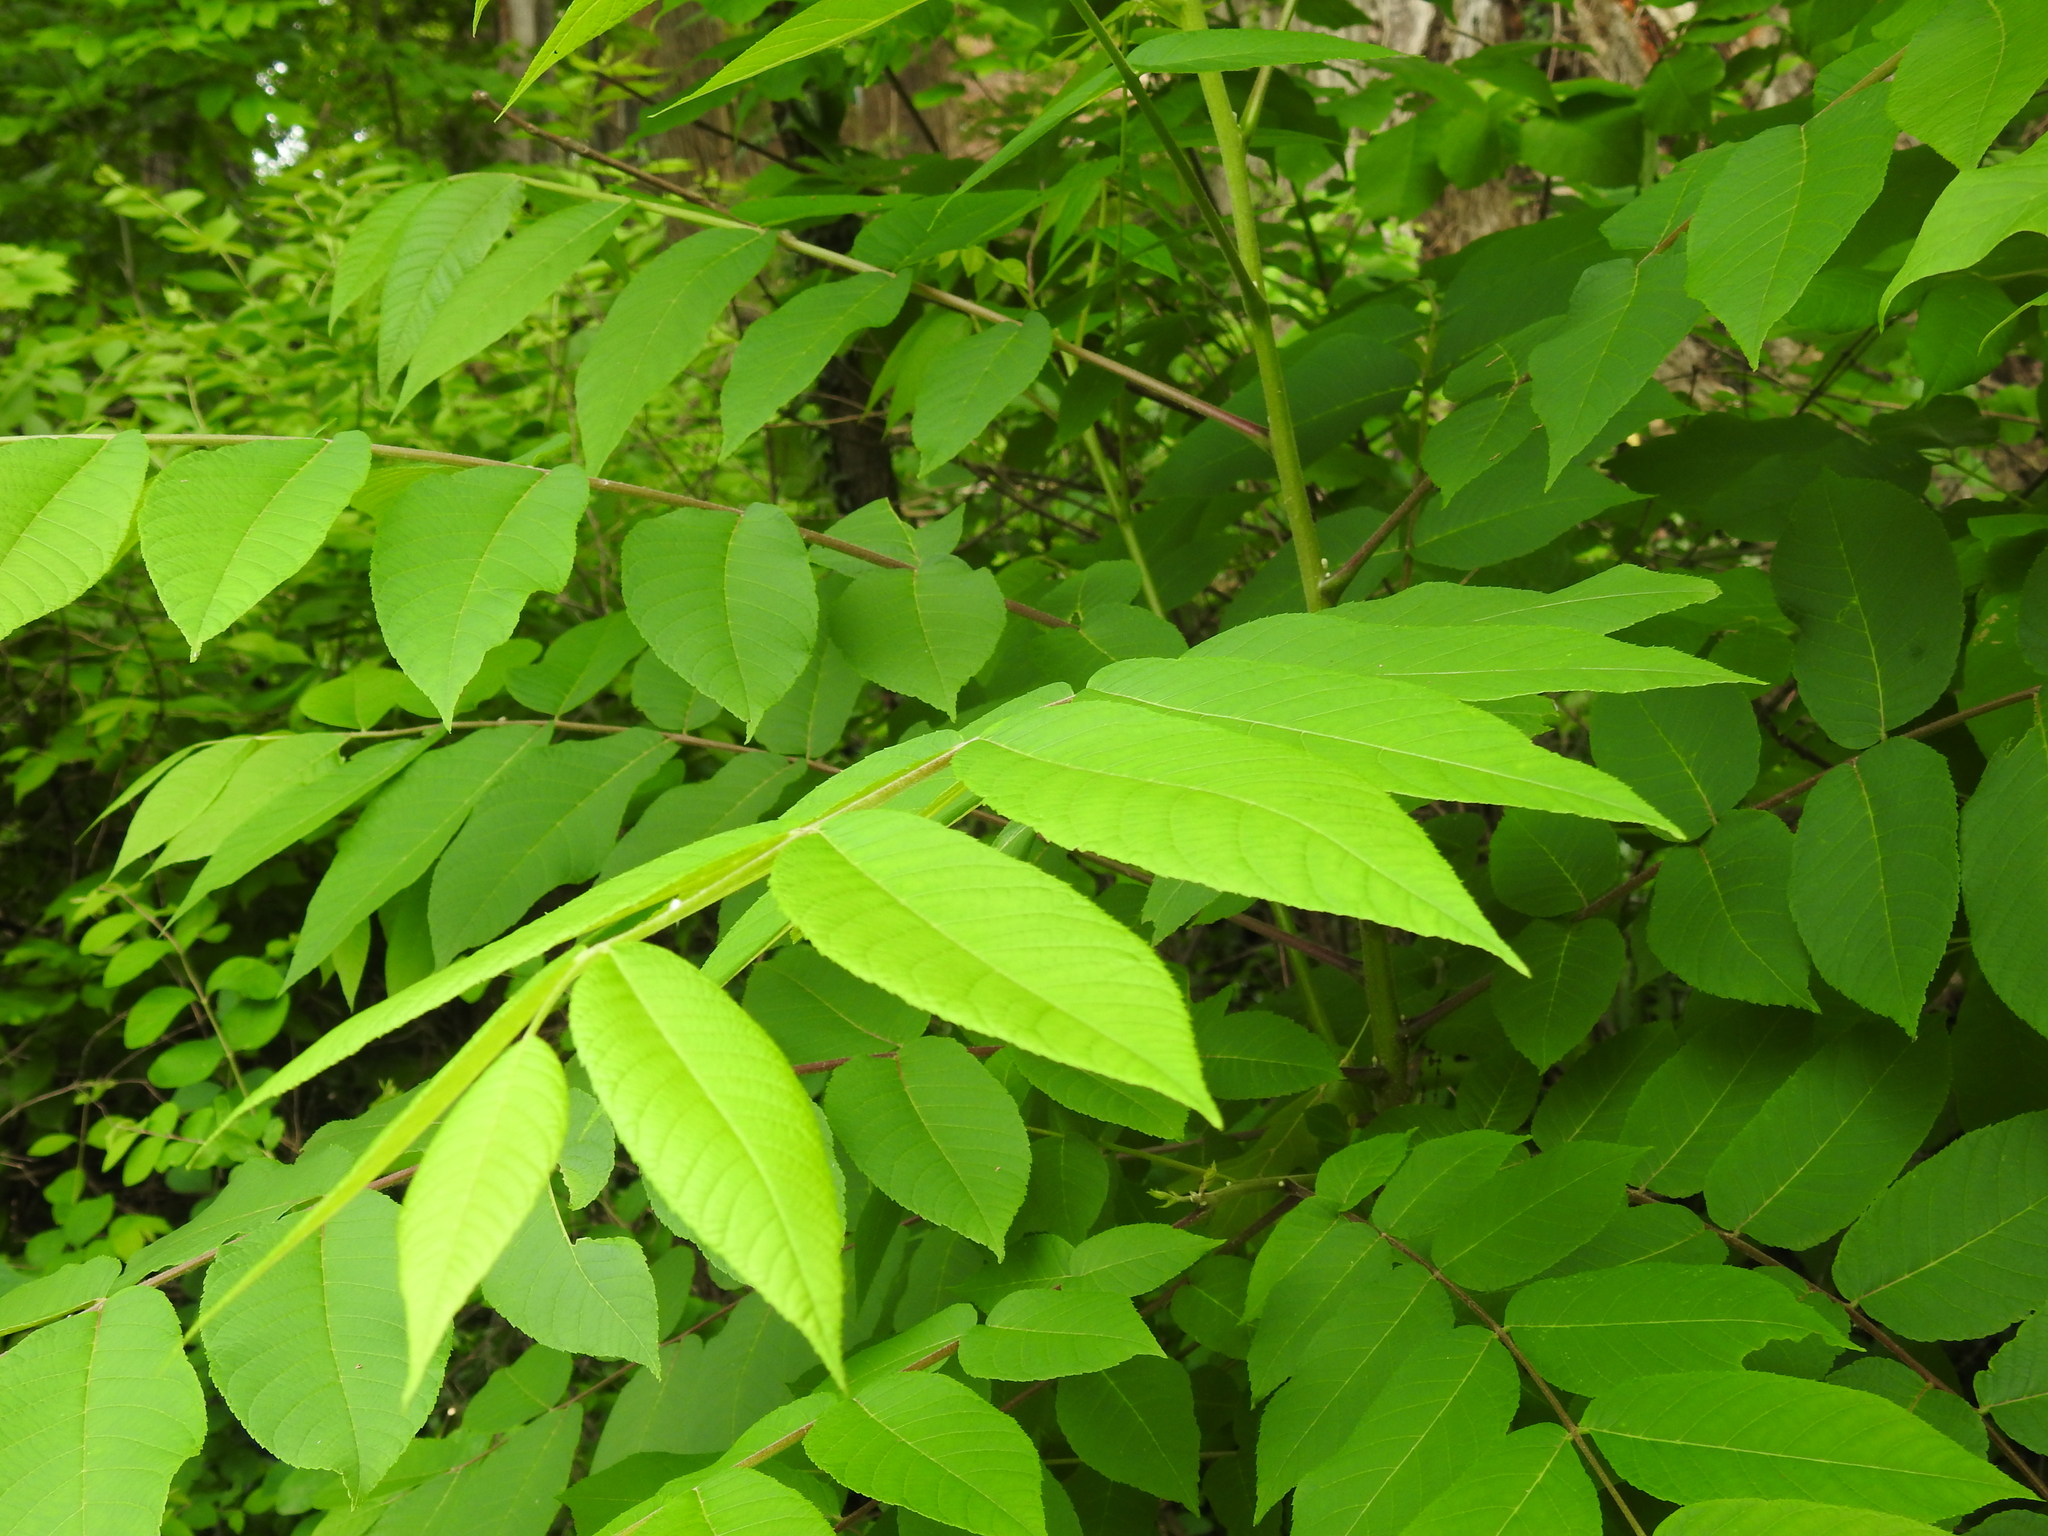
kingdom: Plantae
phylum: Tracheophyta
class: Magnoliopsida
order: Fagales
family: Juglandaceae
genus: Juglans
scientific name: Juglans nigra
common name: Black walnut
